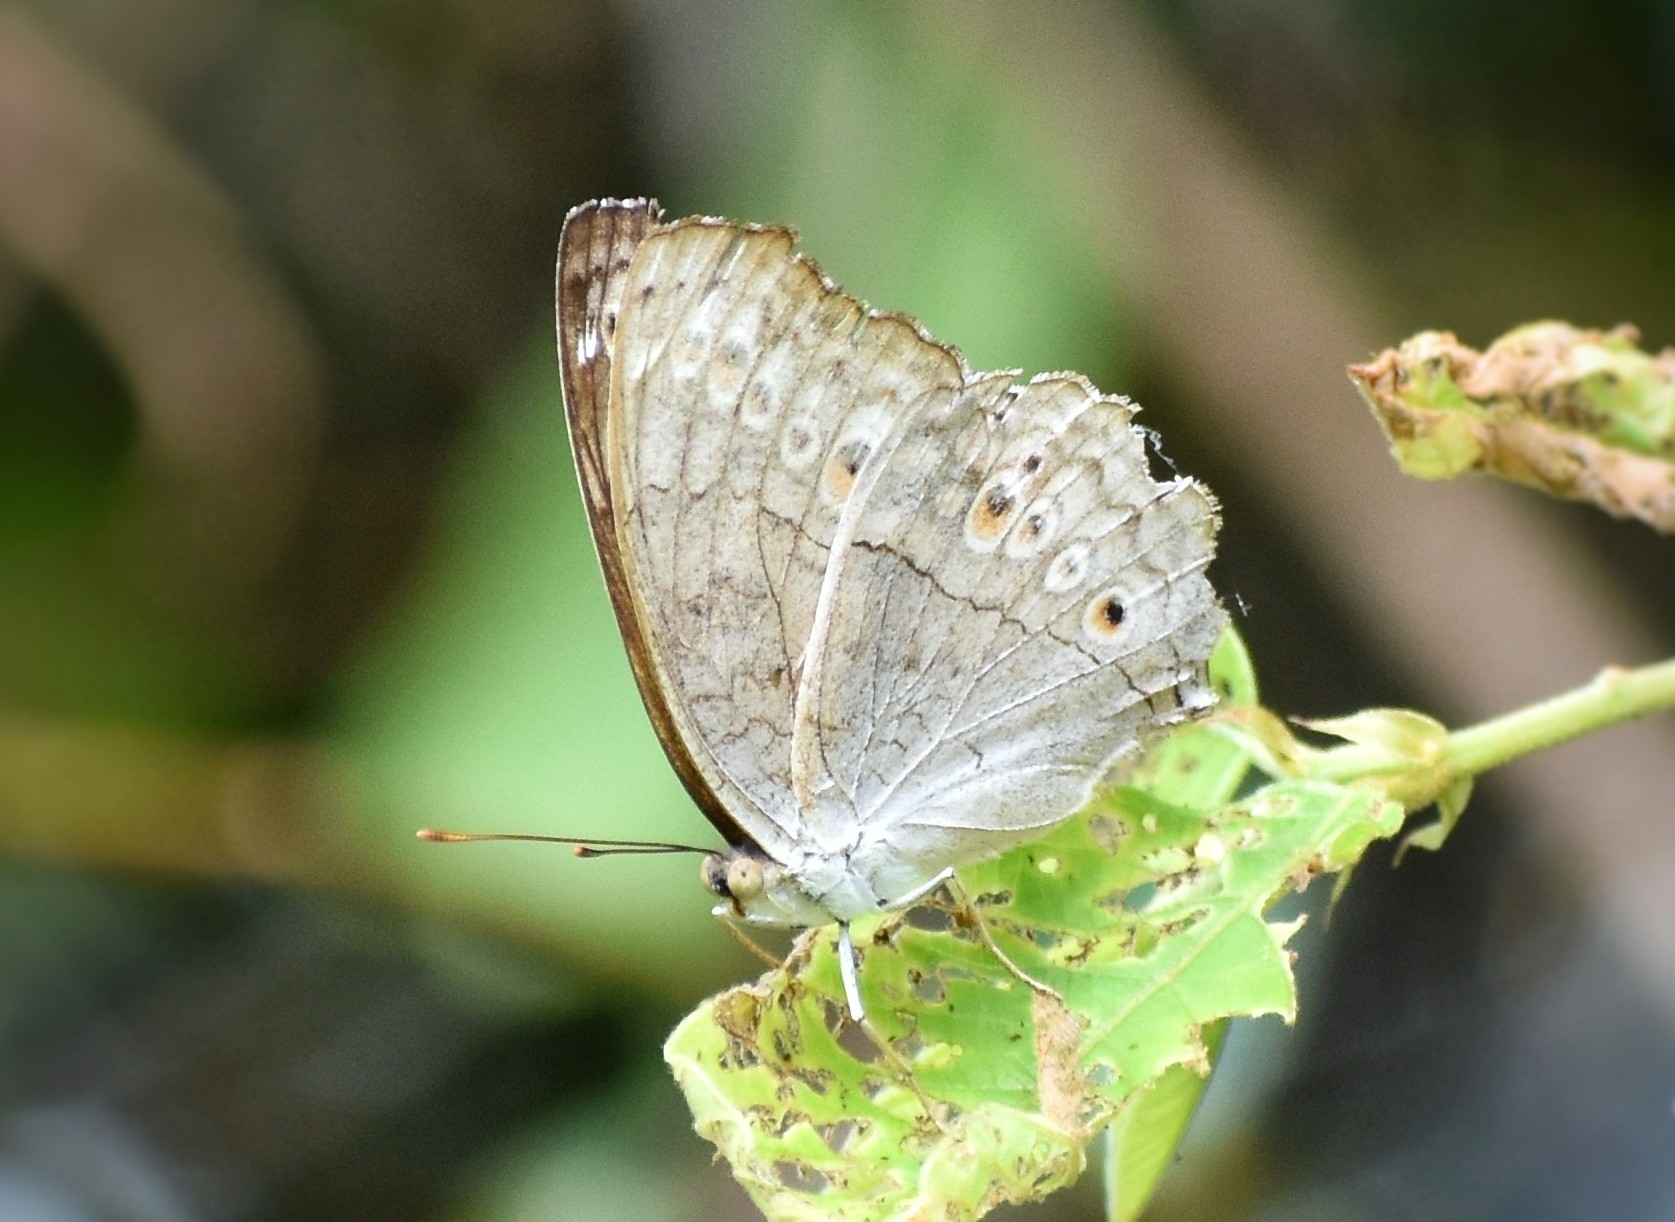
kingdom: Animalia
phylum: Arthropoda
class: Insecta
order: Lepidoptera
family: Nymphalidae
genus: Junonia
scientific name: Junonia atlites
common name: Grey pansy
